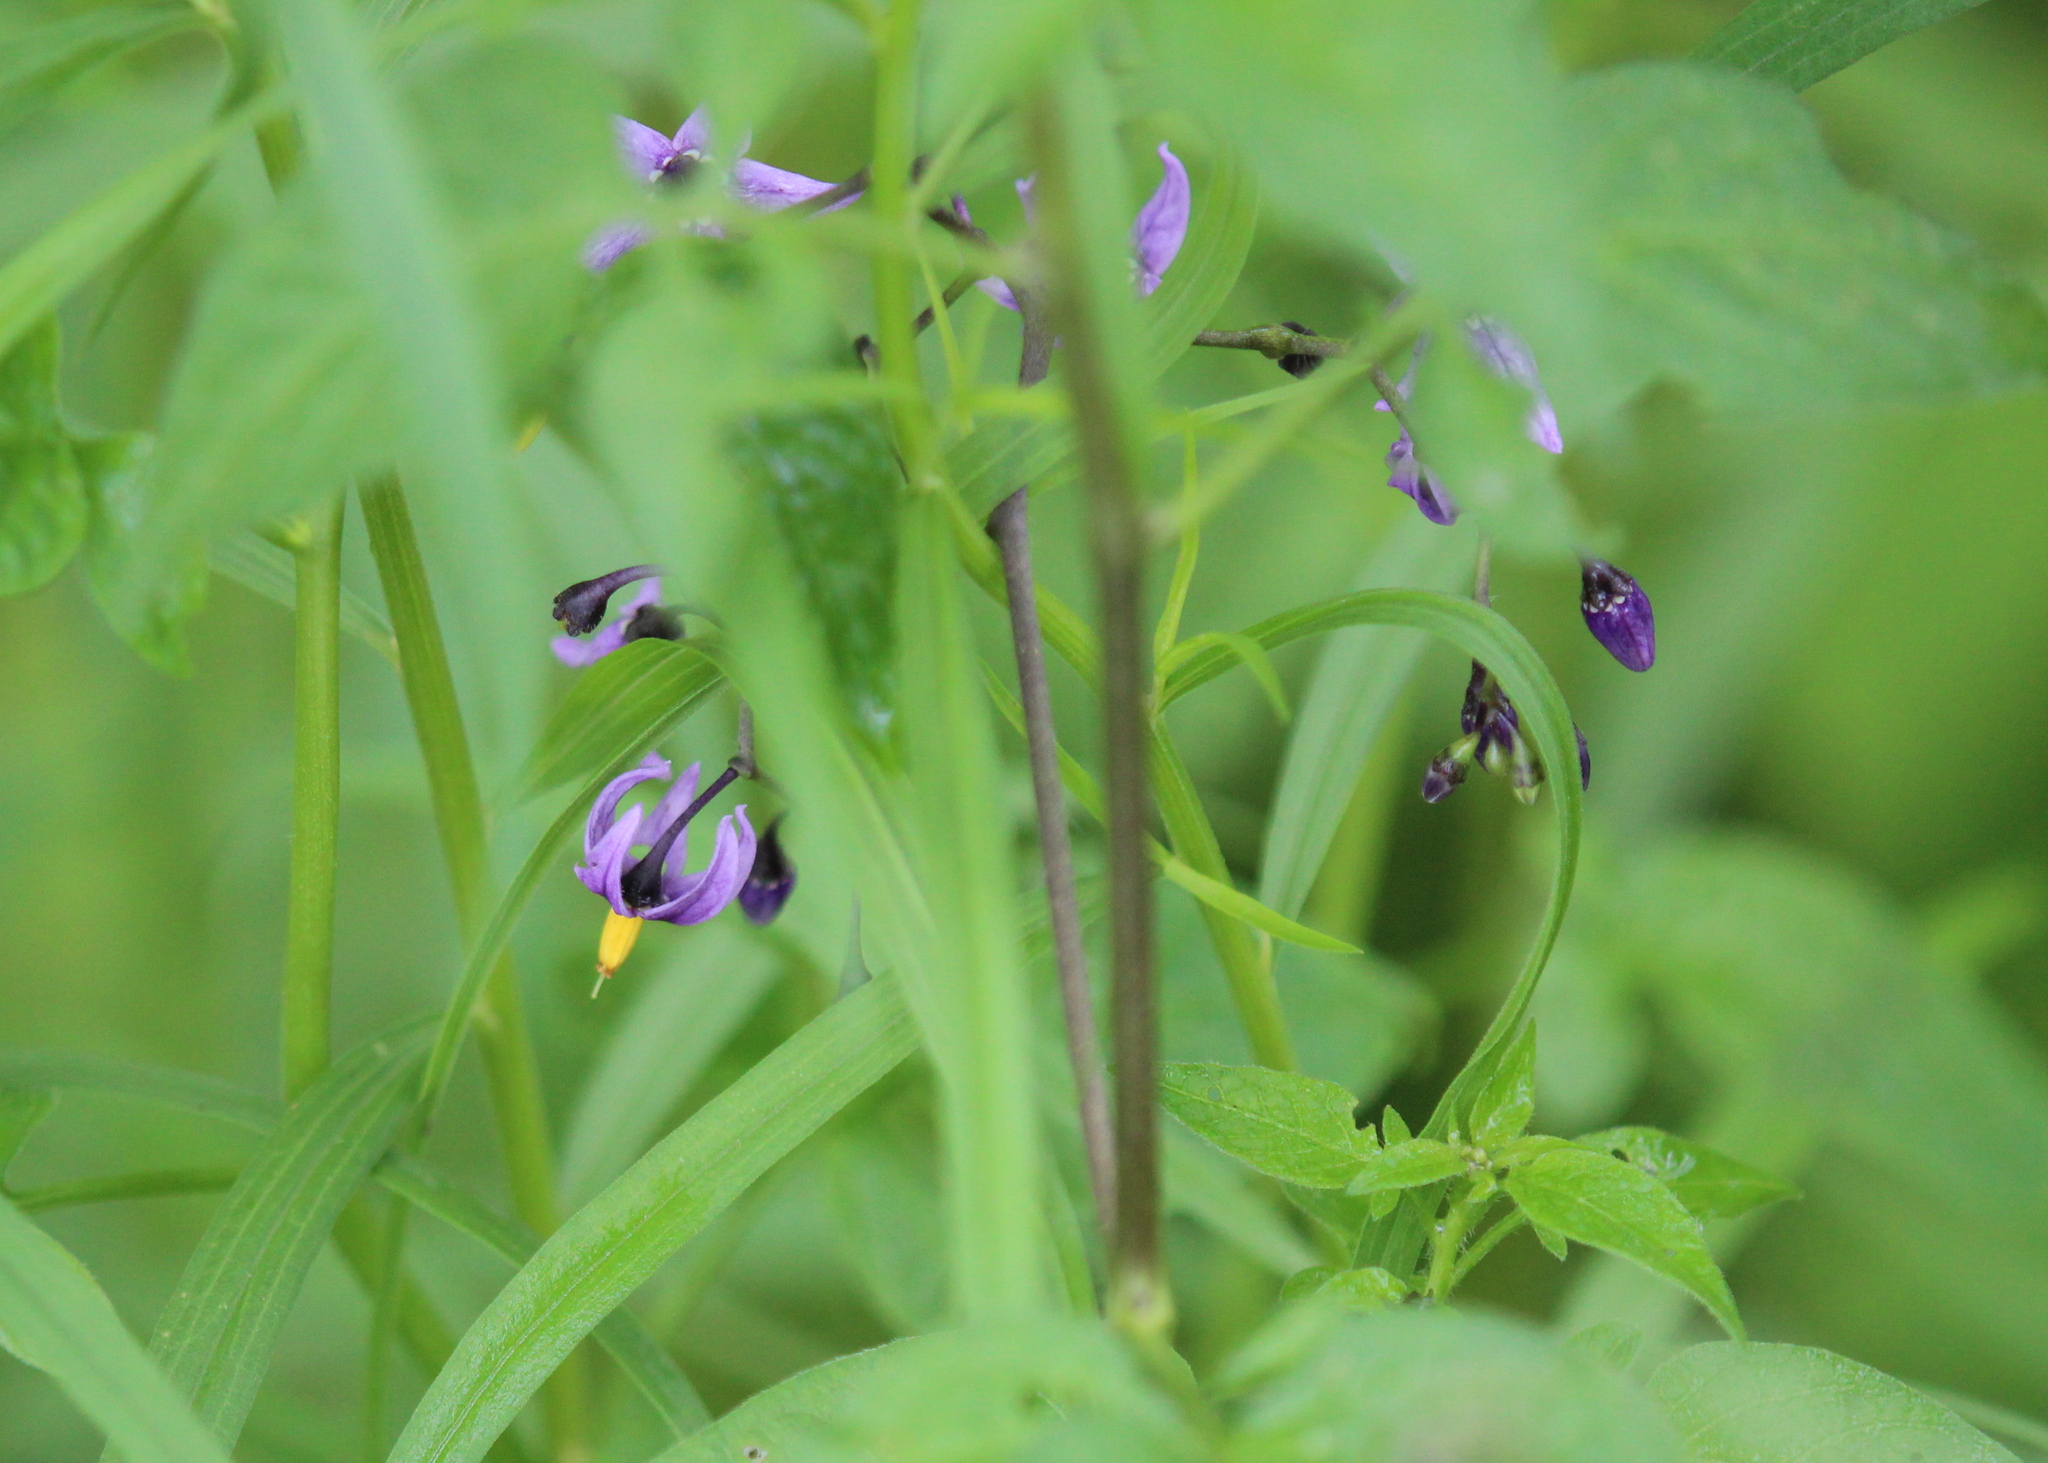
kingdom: Plantae
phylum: Tracheophyta
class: Magnoliopsida
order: Solanales
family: Solanaceae
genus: Solanum
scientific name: Solanum dulcamara
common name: Climbing nightshade
